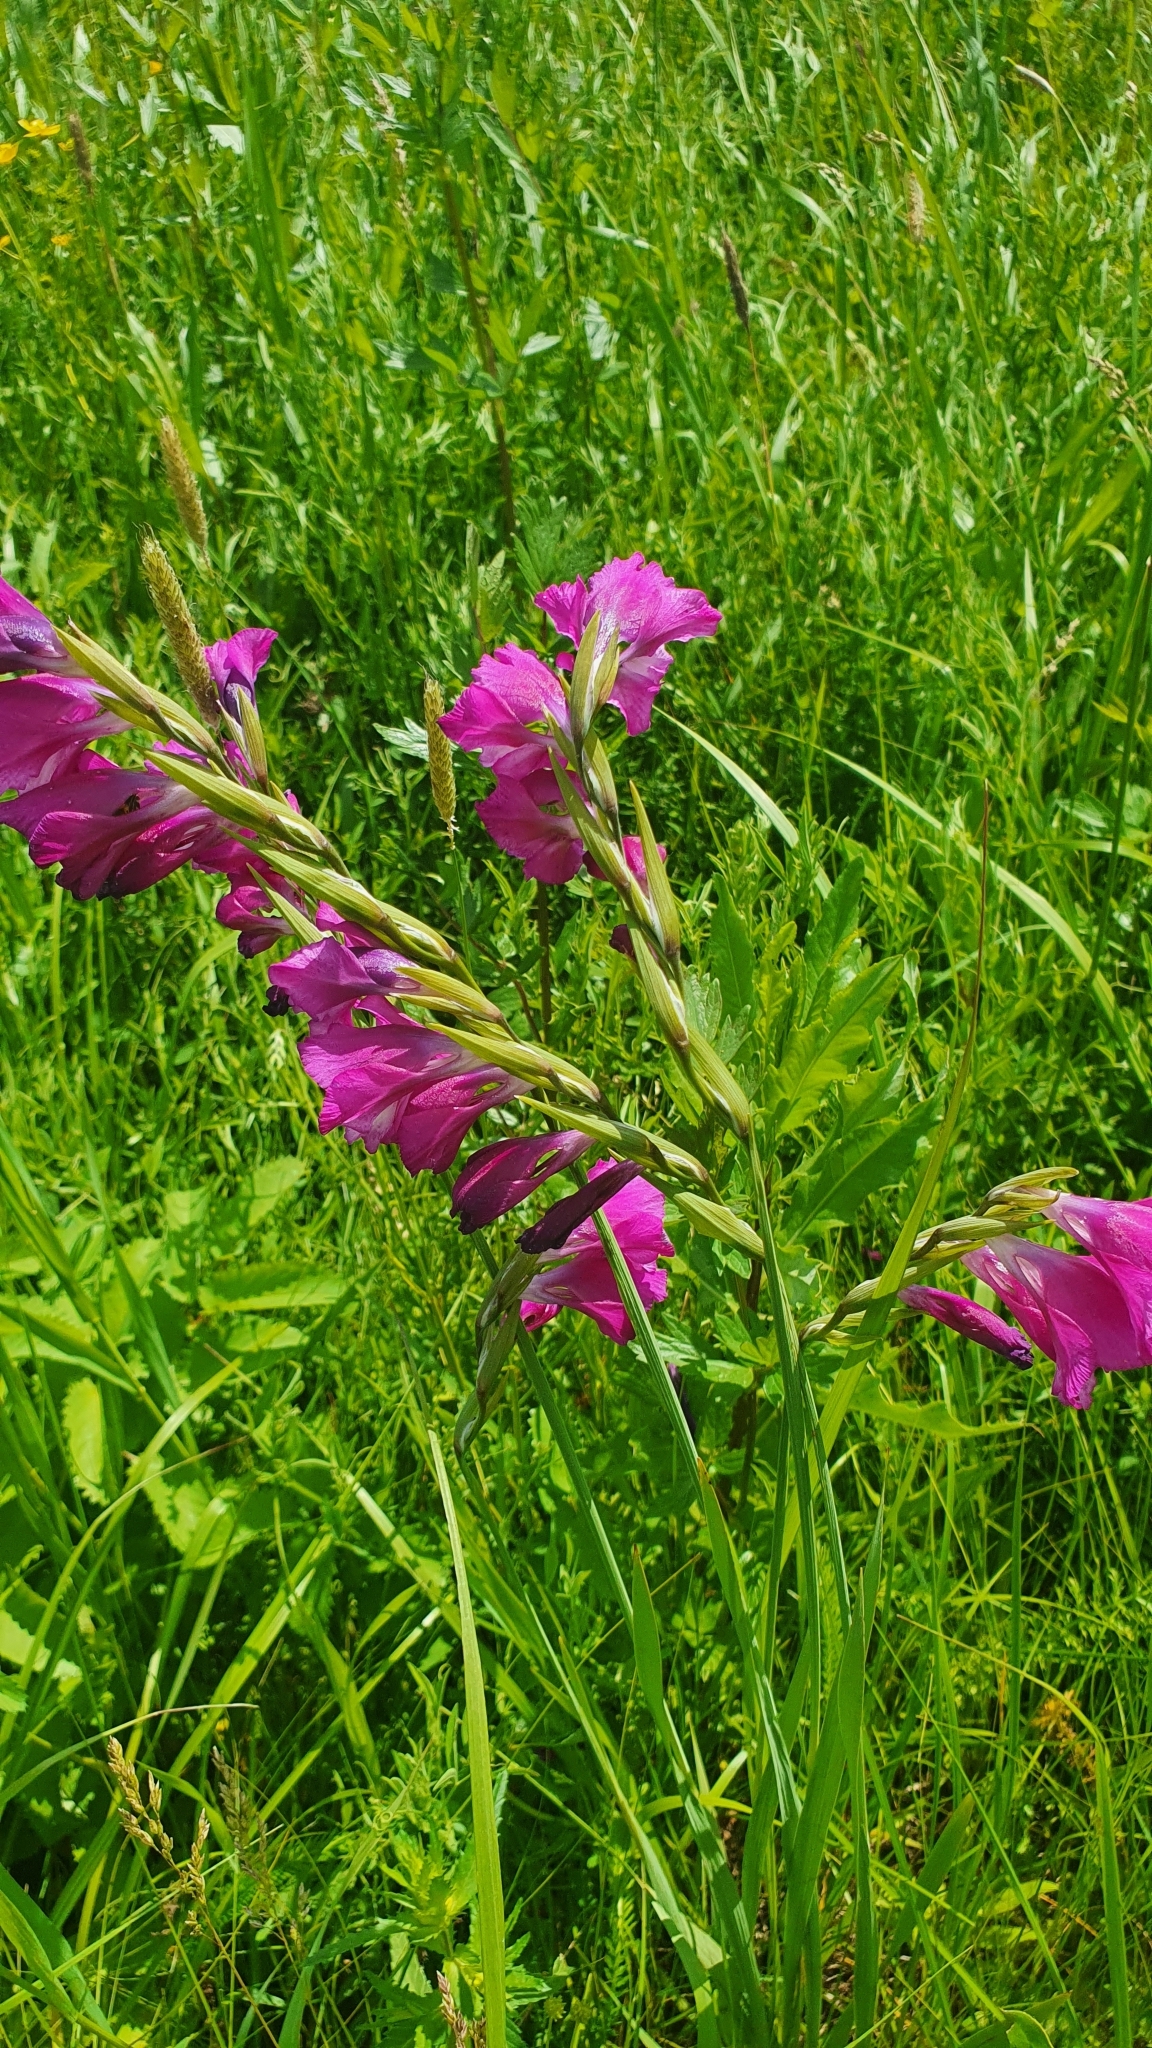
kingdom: Plantae
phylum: Tracheophyta
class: Liliopsida
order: Asparagales
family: Iridaceae
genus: Gladiolus
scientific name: Gladiolus tenuis
